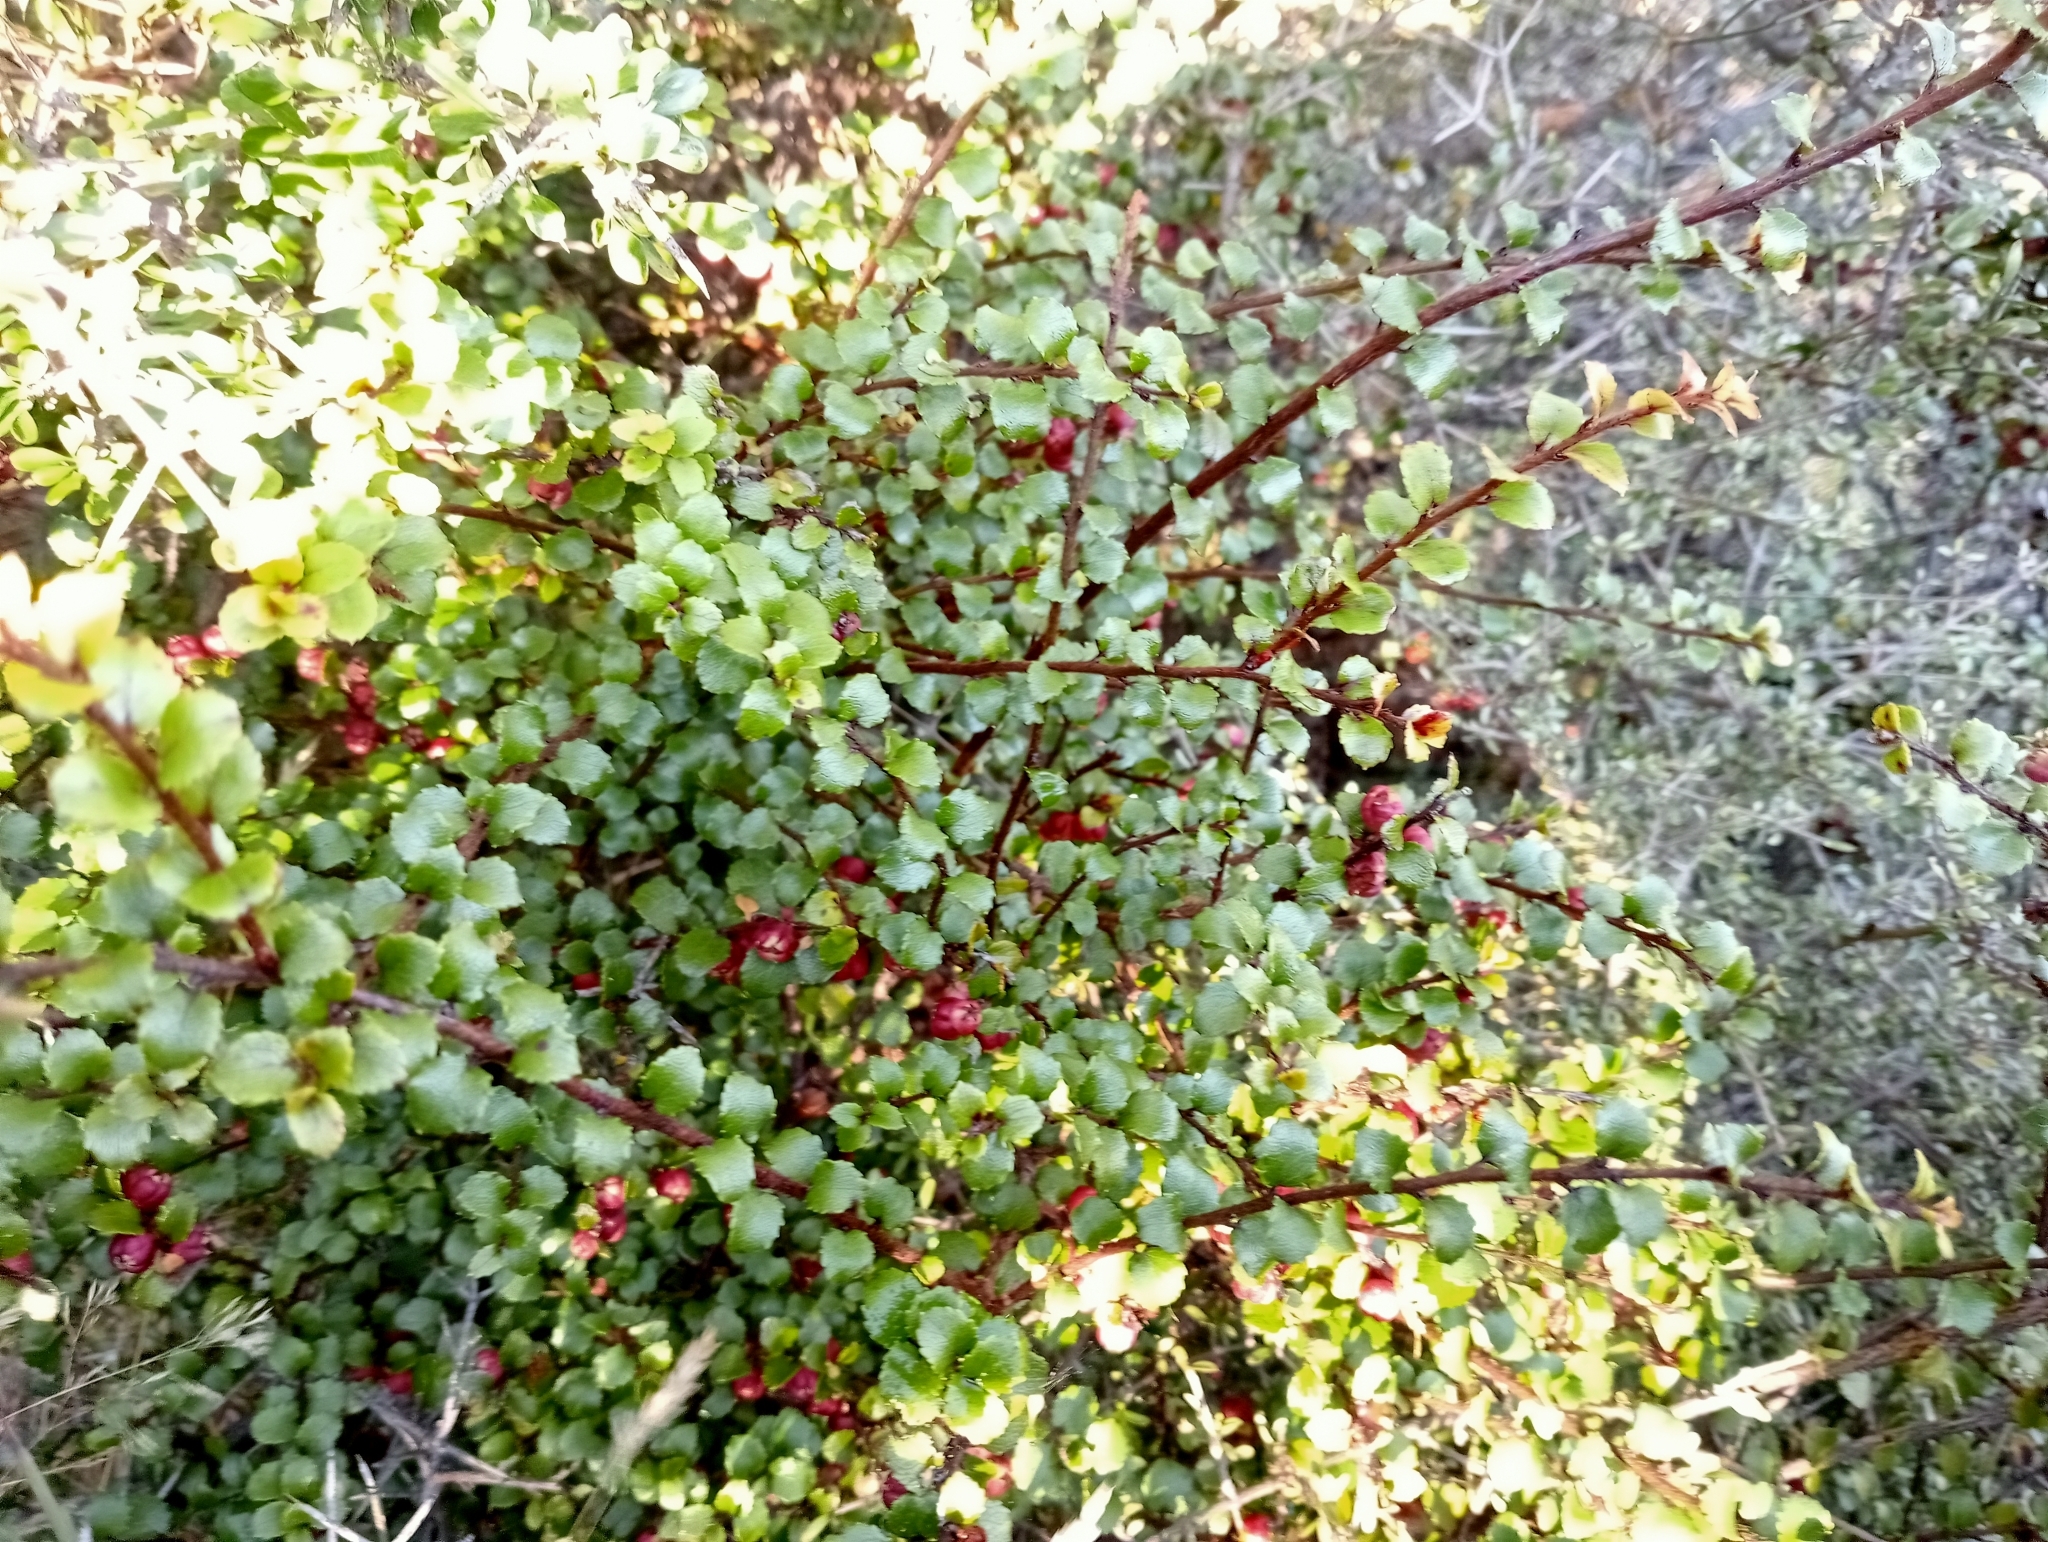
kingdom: Plantae
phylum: Tracheophyta
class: Magnoliopsida
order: Ericales
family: Ericaceae
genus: Gaultheria
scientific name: Gaultheria antipoda
